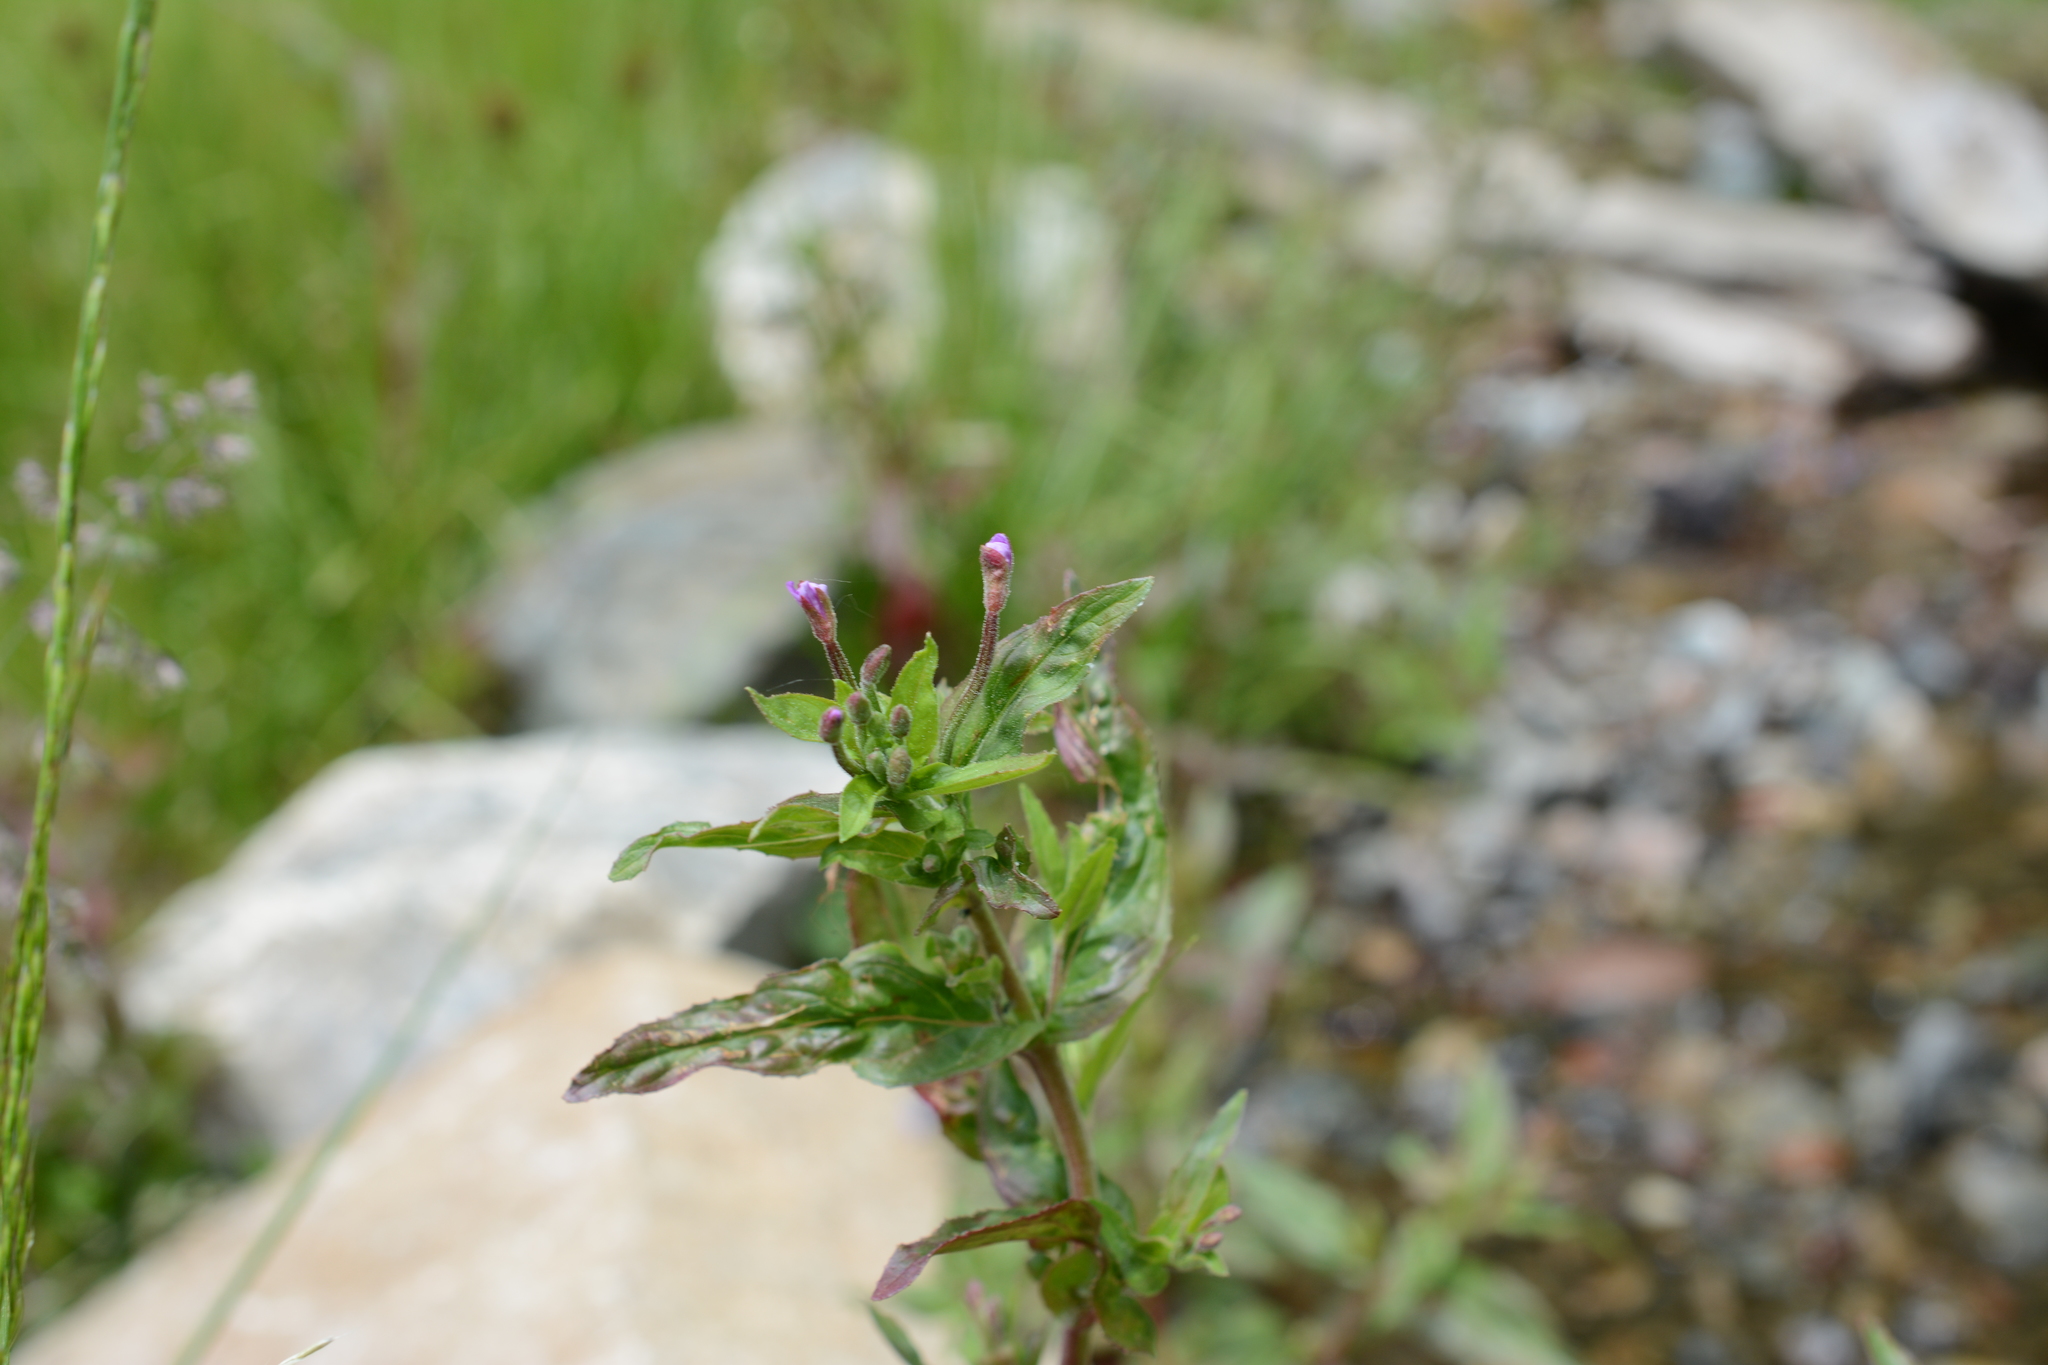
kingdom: Plantae
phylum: Tracheophyta
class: Magnoliopsida
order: Myrtales
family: Onagraceae
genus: Epilobium
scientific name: Epilobium ciliatum
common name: American willowherb
